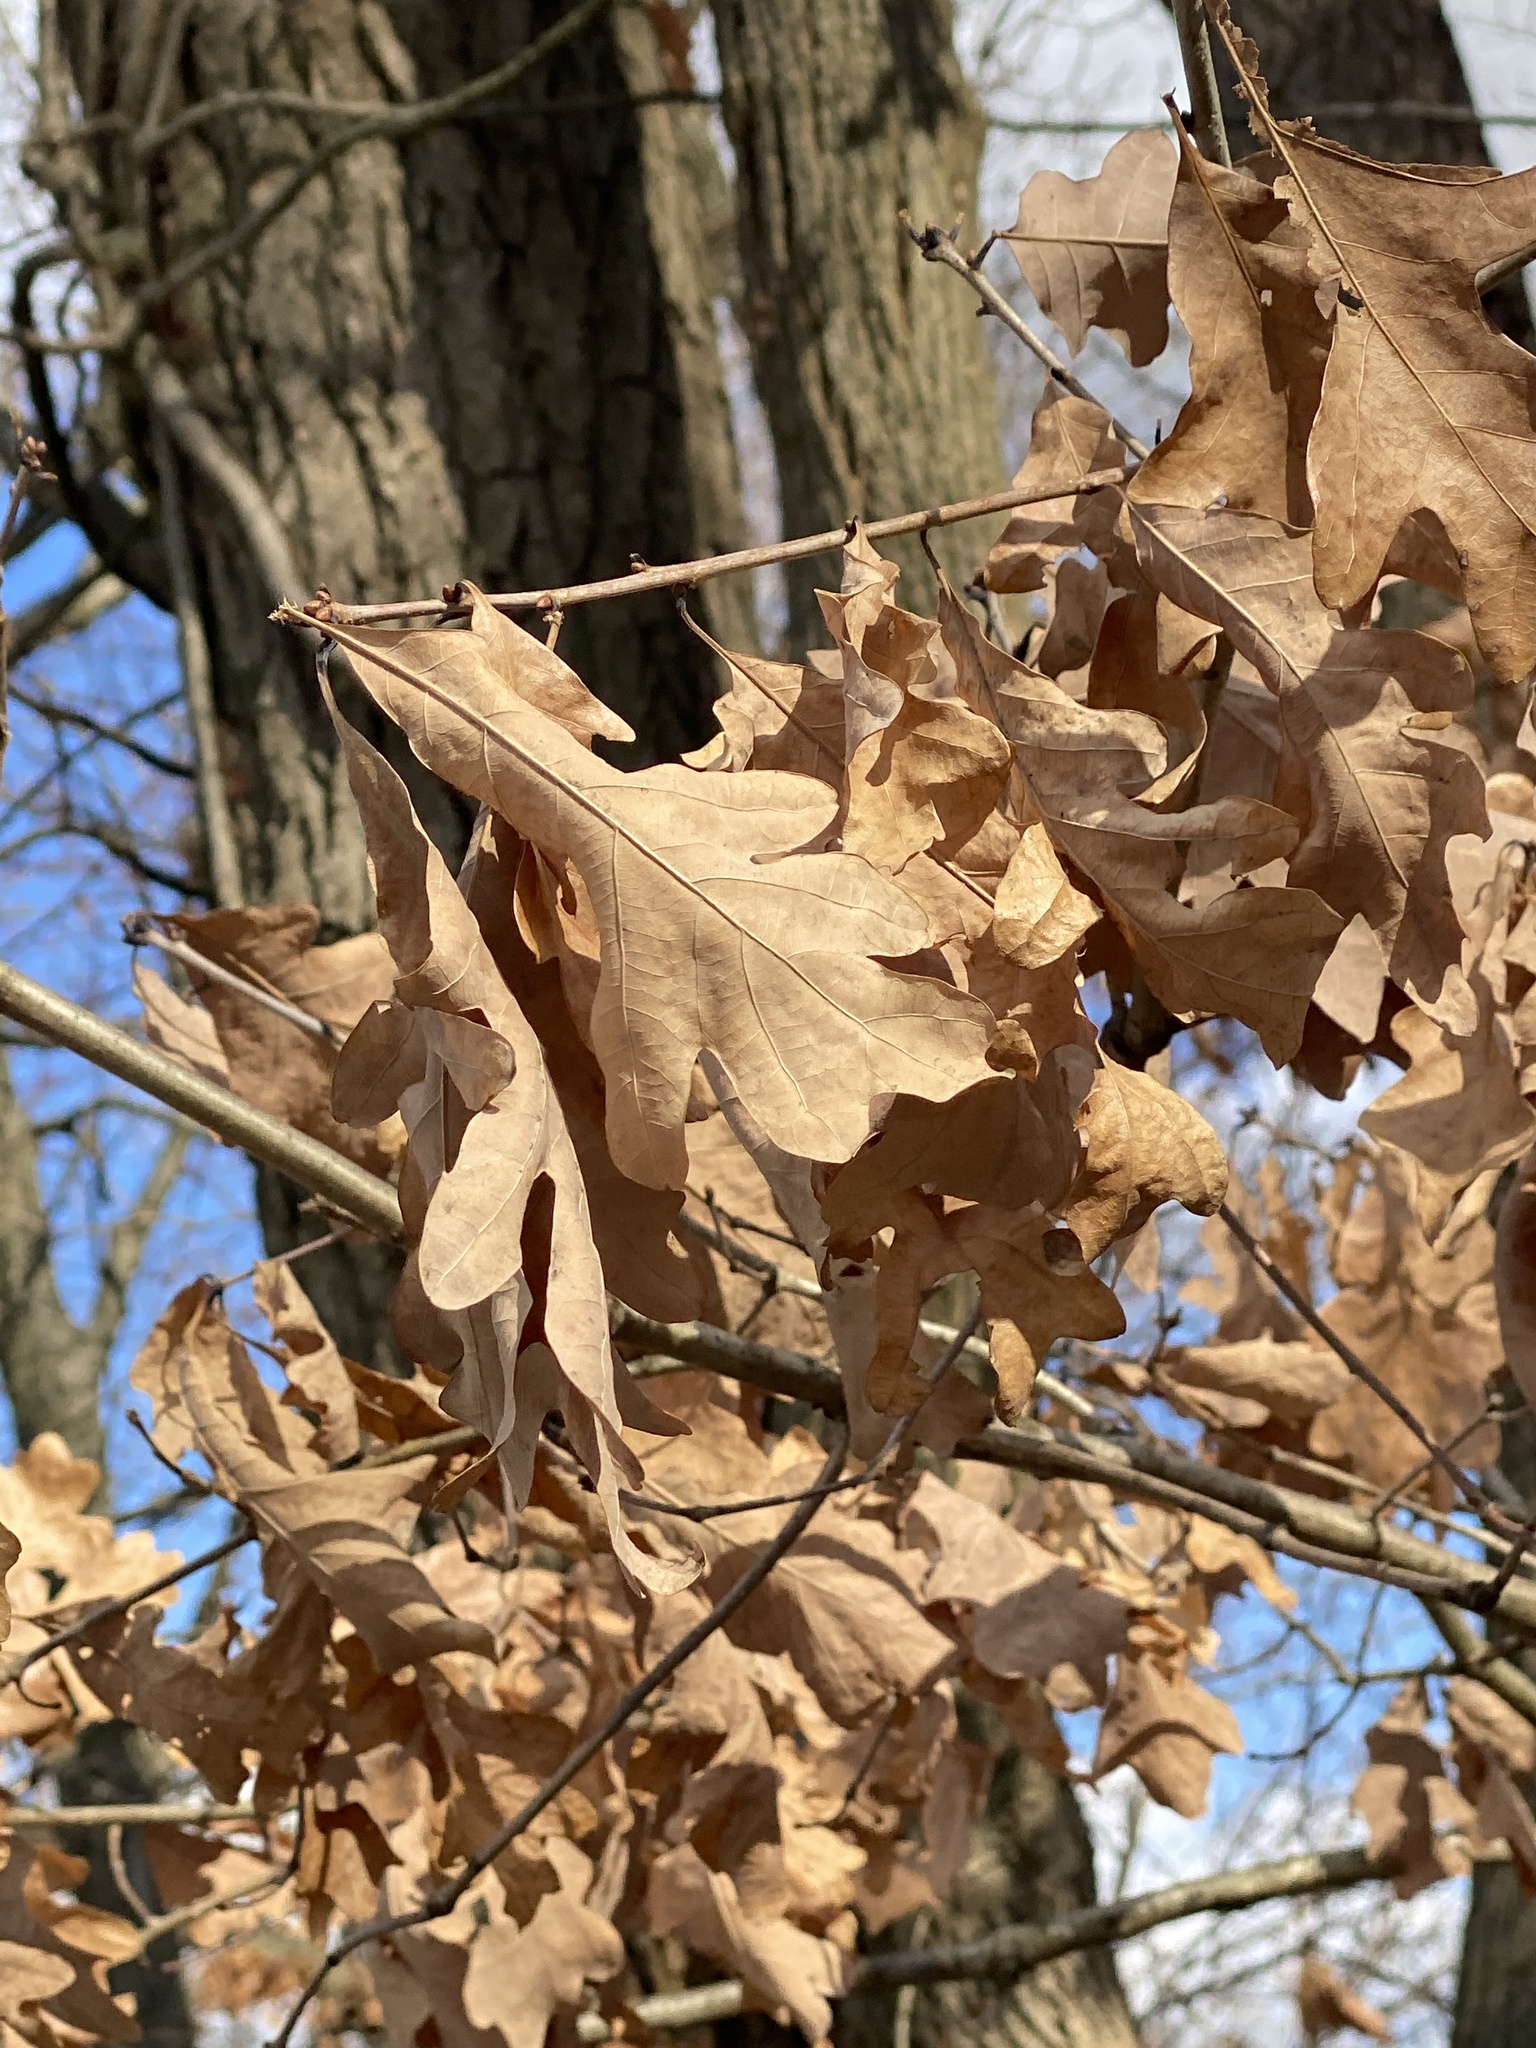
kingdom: Plantae
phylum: Tracheophyta
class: Magnoliopsida
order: Fagales
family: Fagaceae
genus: Quercus
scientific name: Quercus alba
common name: White oak
